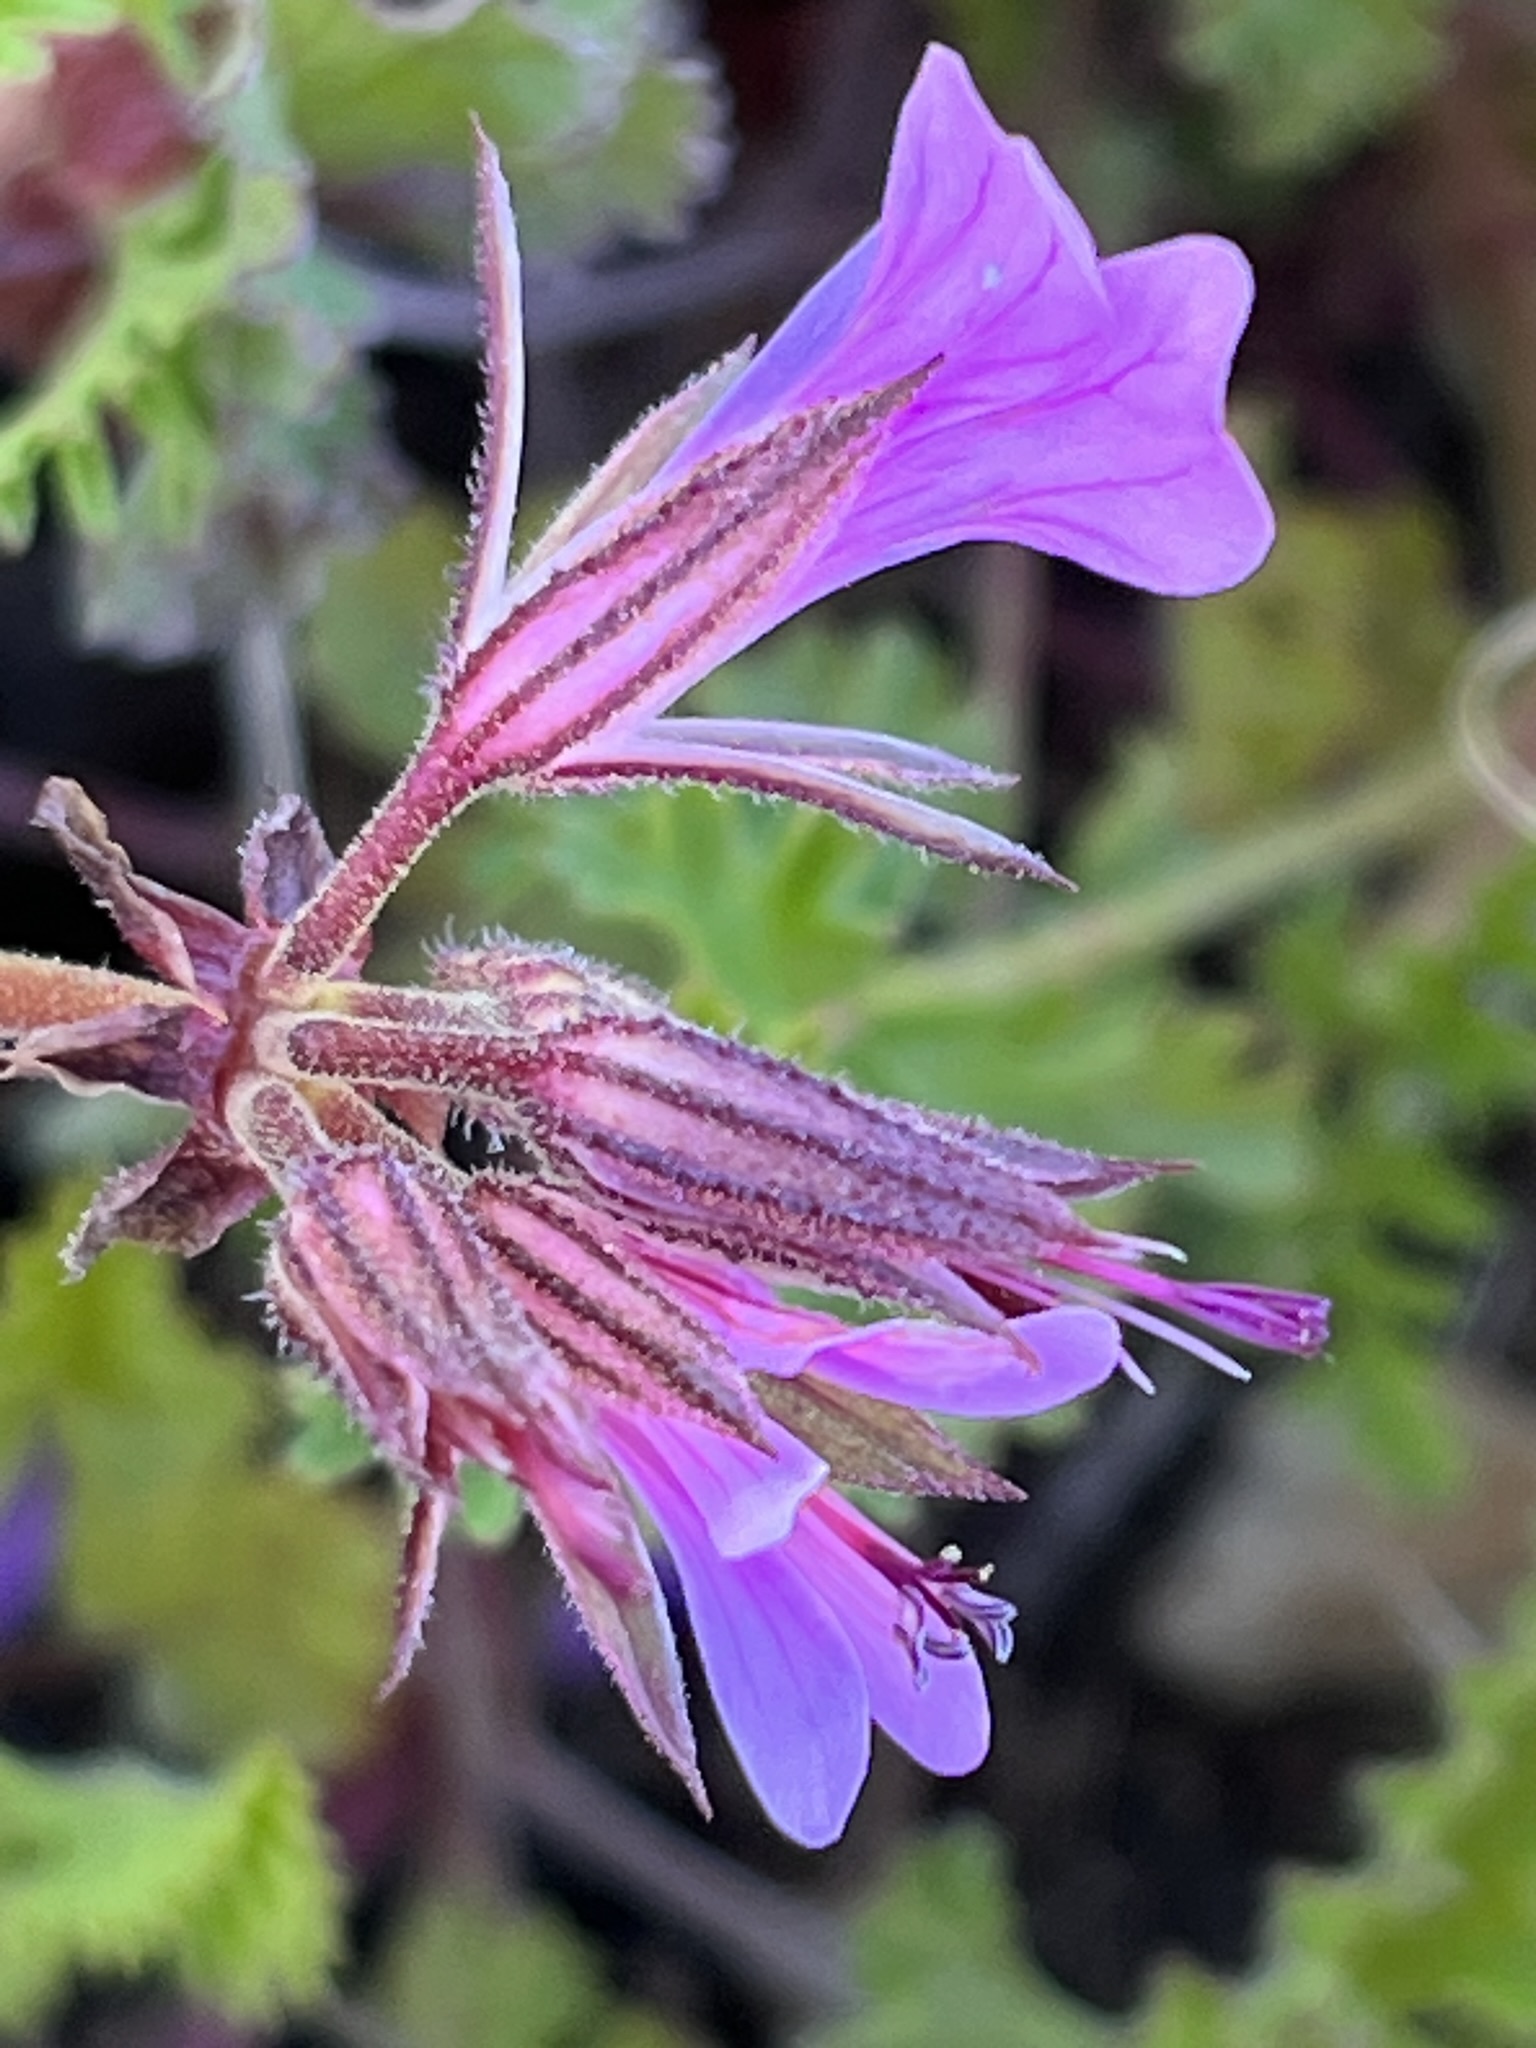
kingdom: Plantae
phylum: Tracheophyta
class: Magnoliopsida
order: Geraniales
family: Geraniaceae
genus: Pelargonium
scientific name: Pelargonium myrrhifolium
